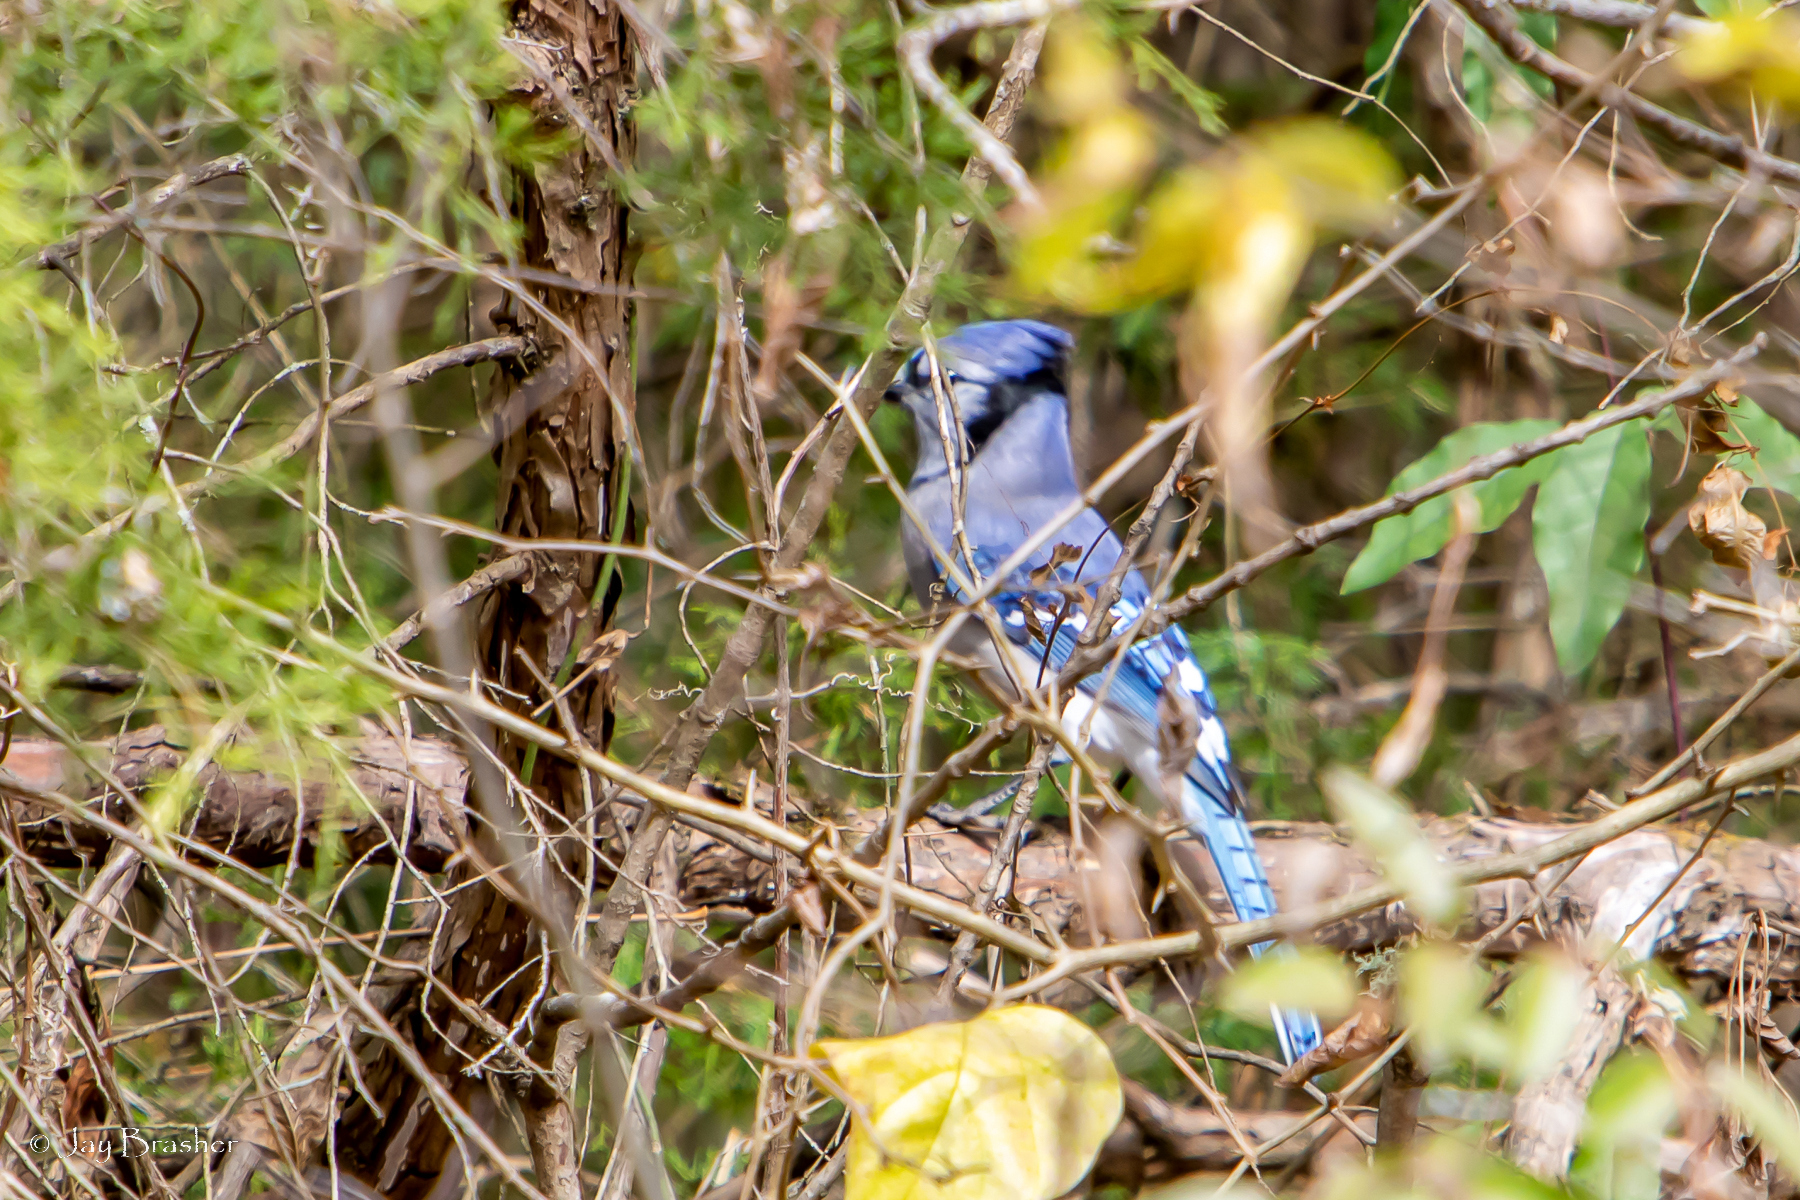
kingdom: Animalia
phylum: Chordata
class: Aves
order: Passeriformes
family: Corvidae
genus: Cyanocitta
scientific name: Cyanocitta cristata
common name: Blue jay
